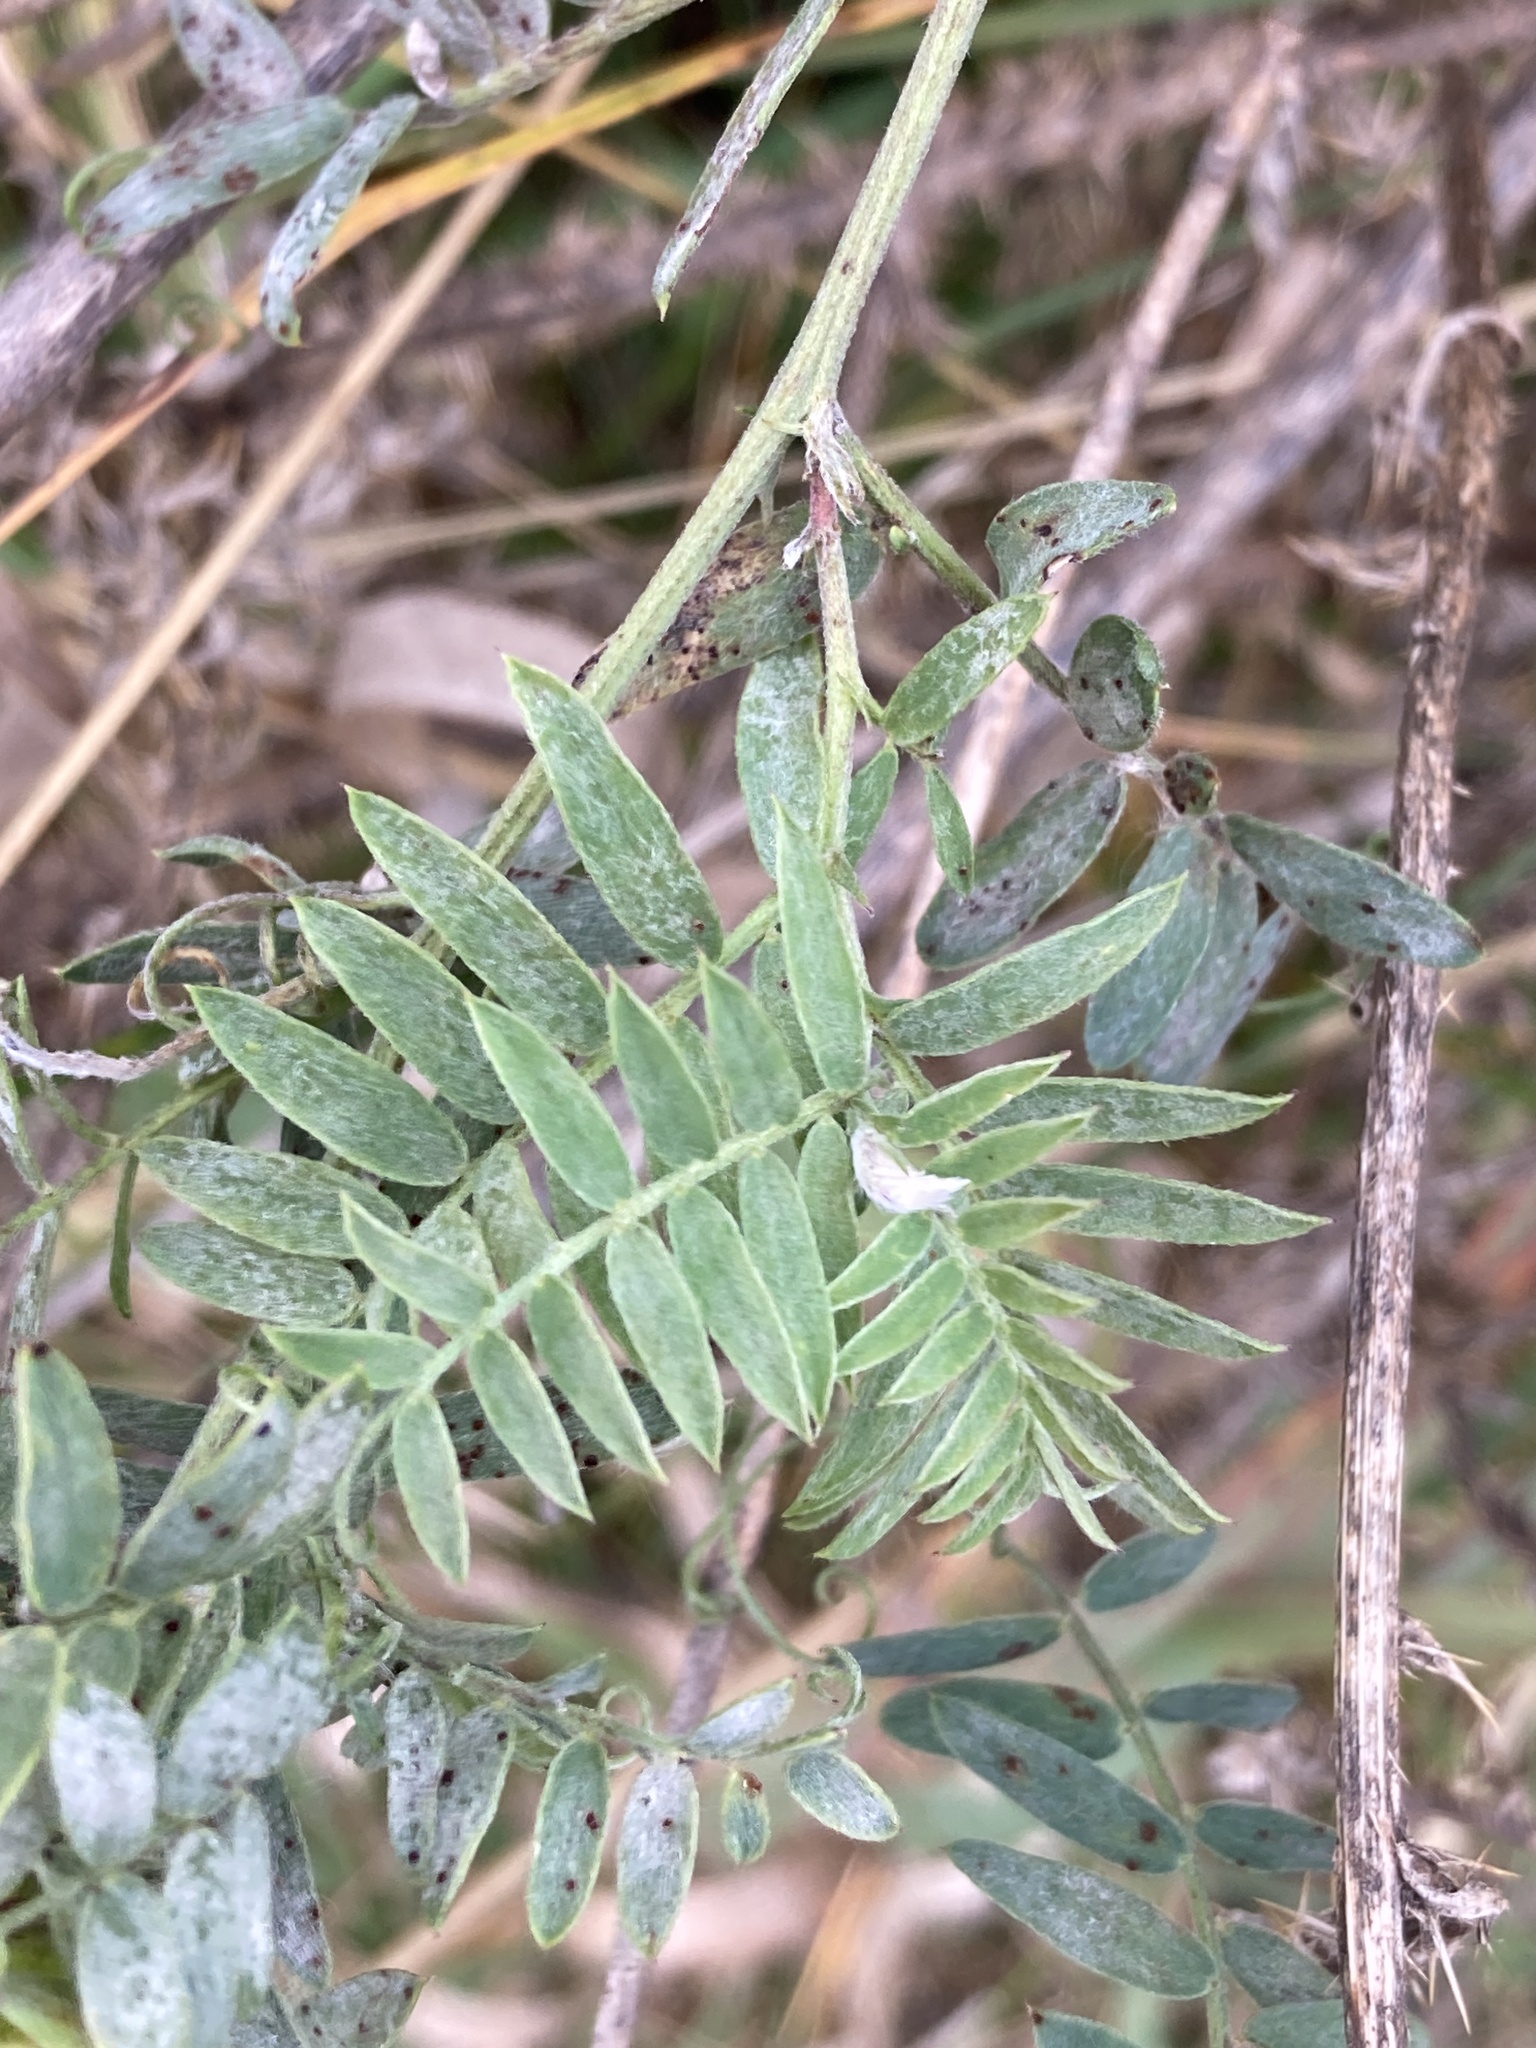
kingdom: Plantae
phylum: Tracheophyta
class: Magnoliopsida
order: Fabales
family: Fabaceae
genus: Vicia
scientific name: Vicia cracca
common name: Bird vetch
